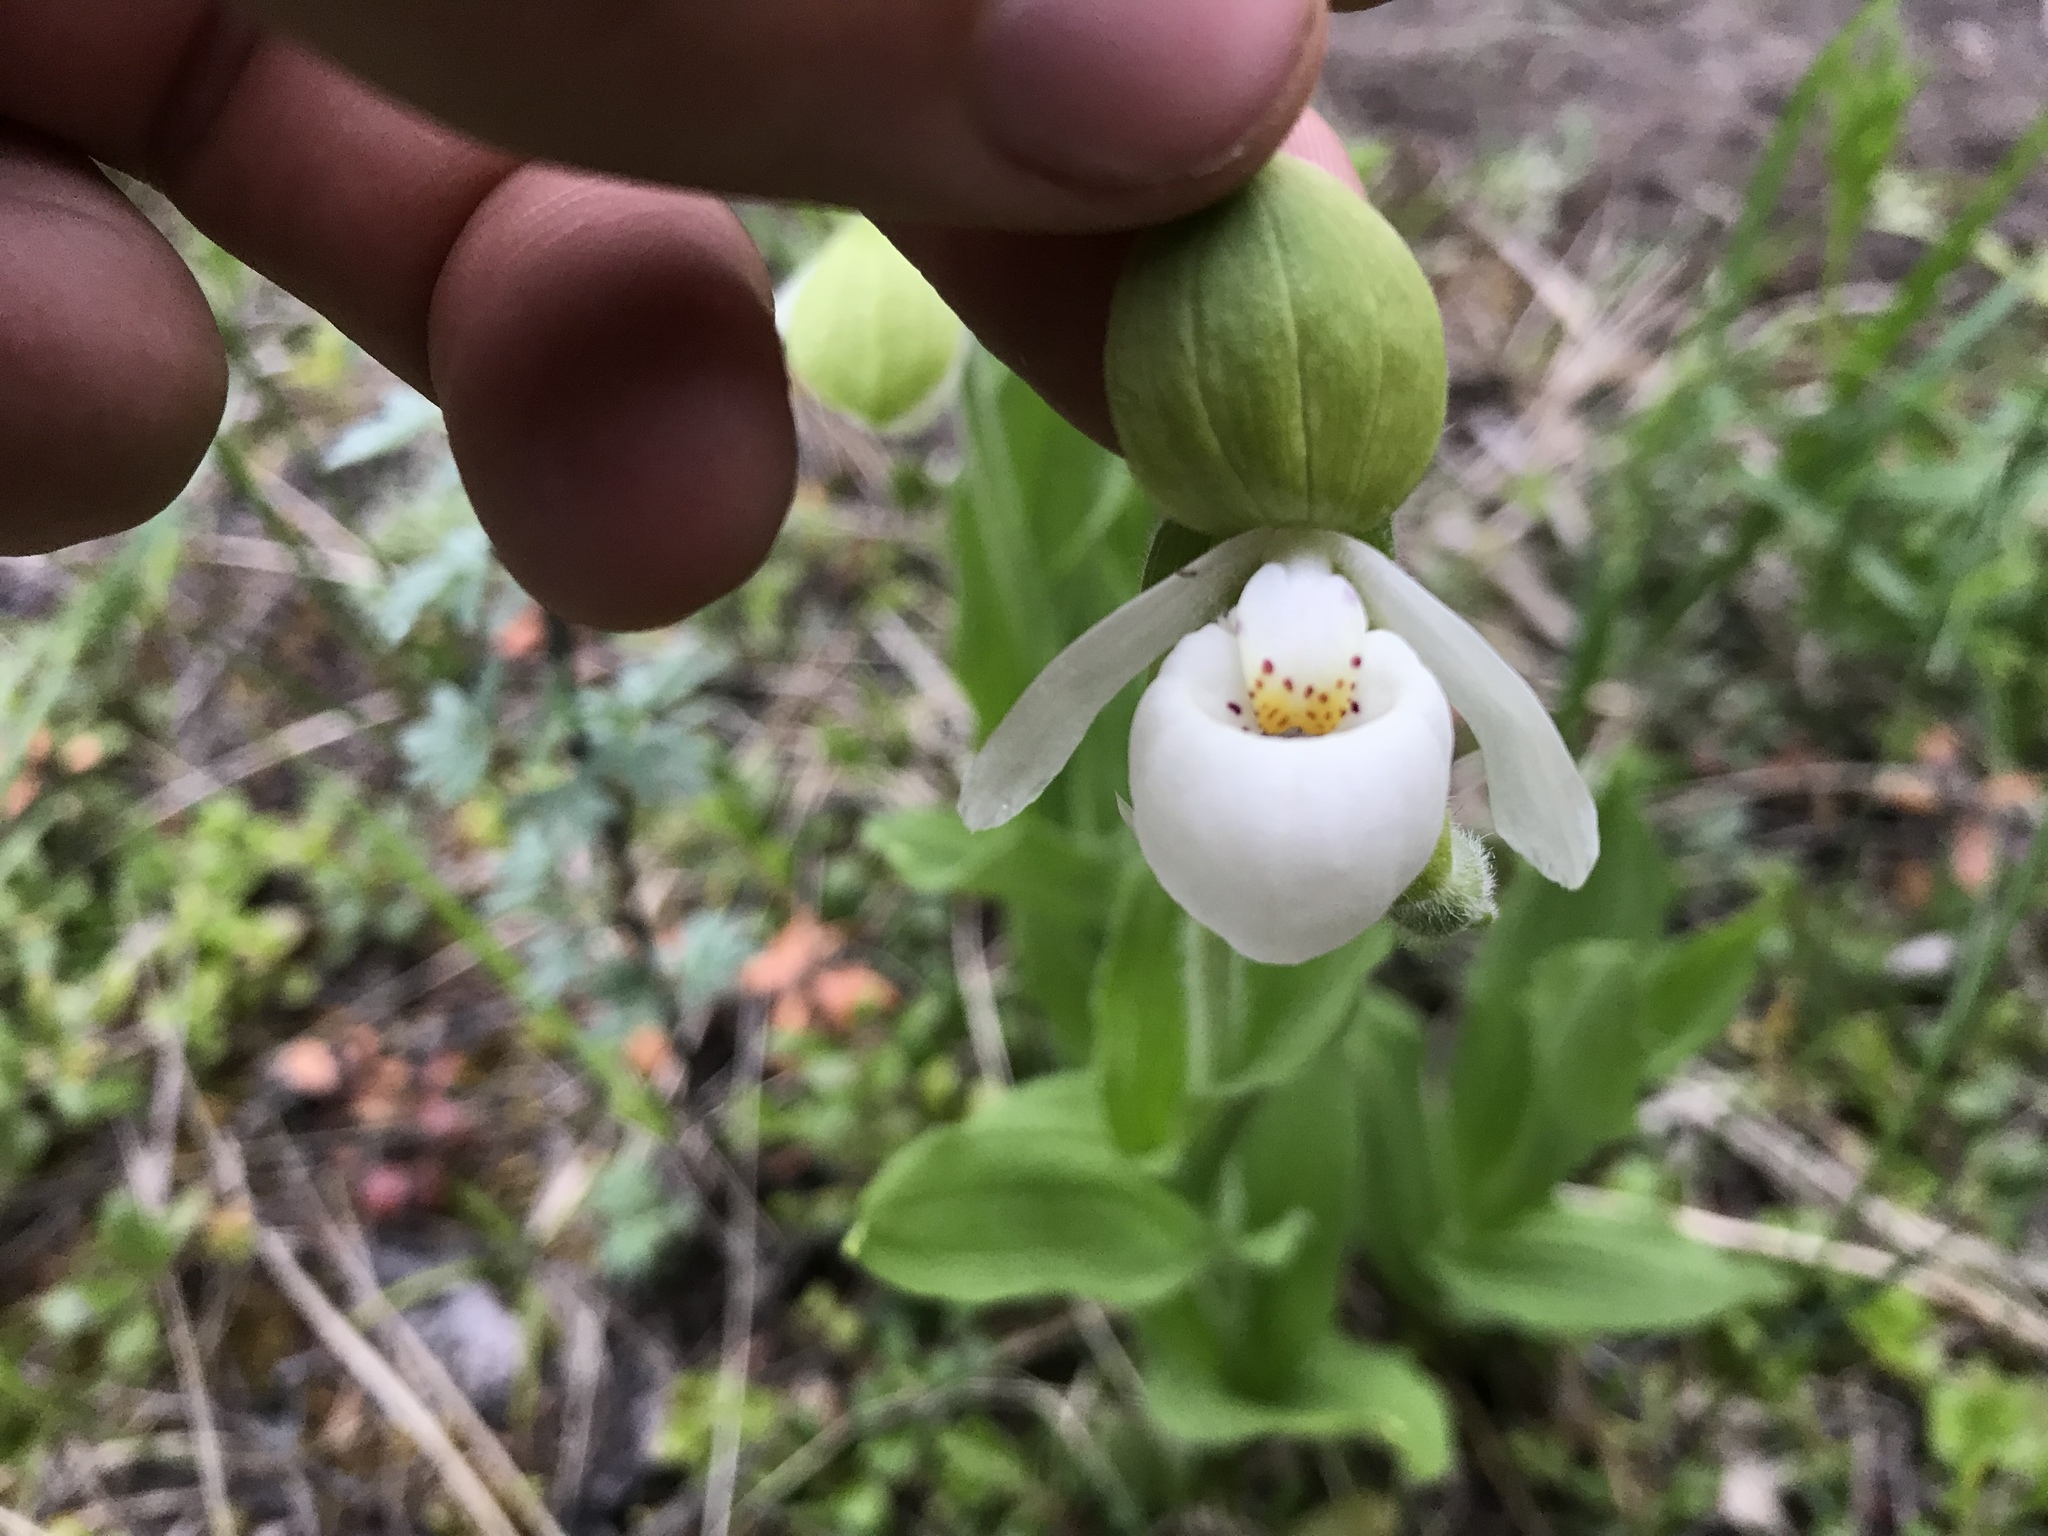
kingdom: Plantae
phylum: Tracheophyta
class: Liliopsida
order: Asparagales
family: Orchidaceae
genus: Cypripedium
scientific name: Cypripedium passerinum
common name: Sparrow's-egg lady's-slipper
